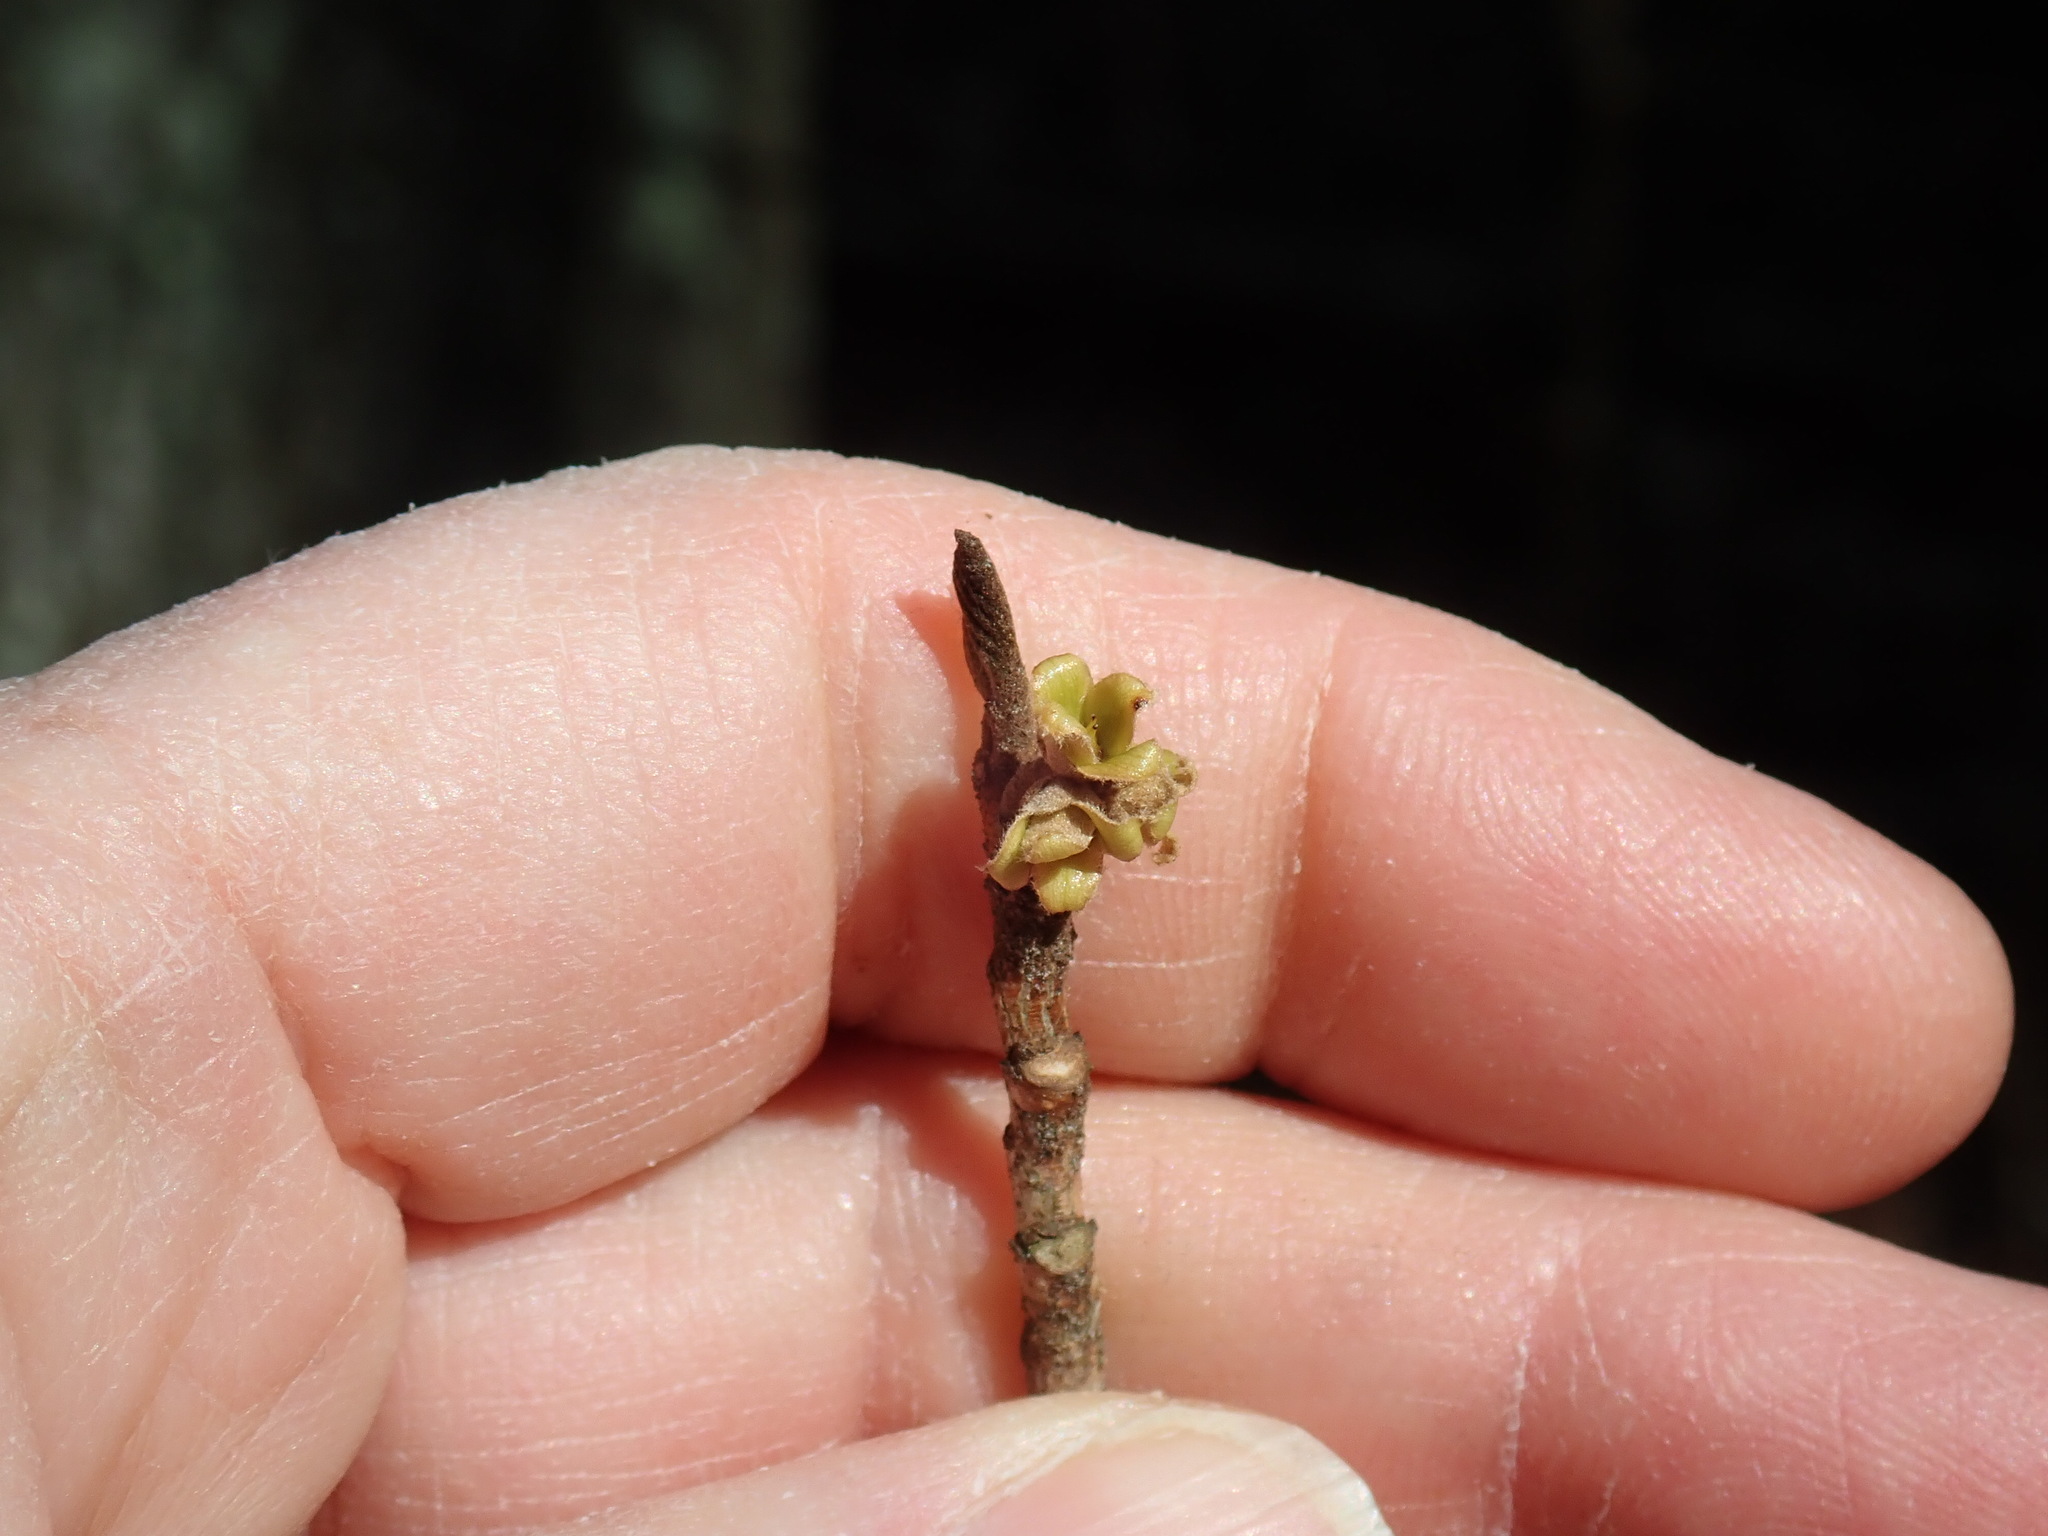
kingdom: Plantae
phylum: Tracheophyta
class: Magnoliopsida
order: Saxifragales
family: Hamamelidaceae
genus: Hamamelis
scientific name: Hamamelis virginiana
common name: Witch-hazel
